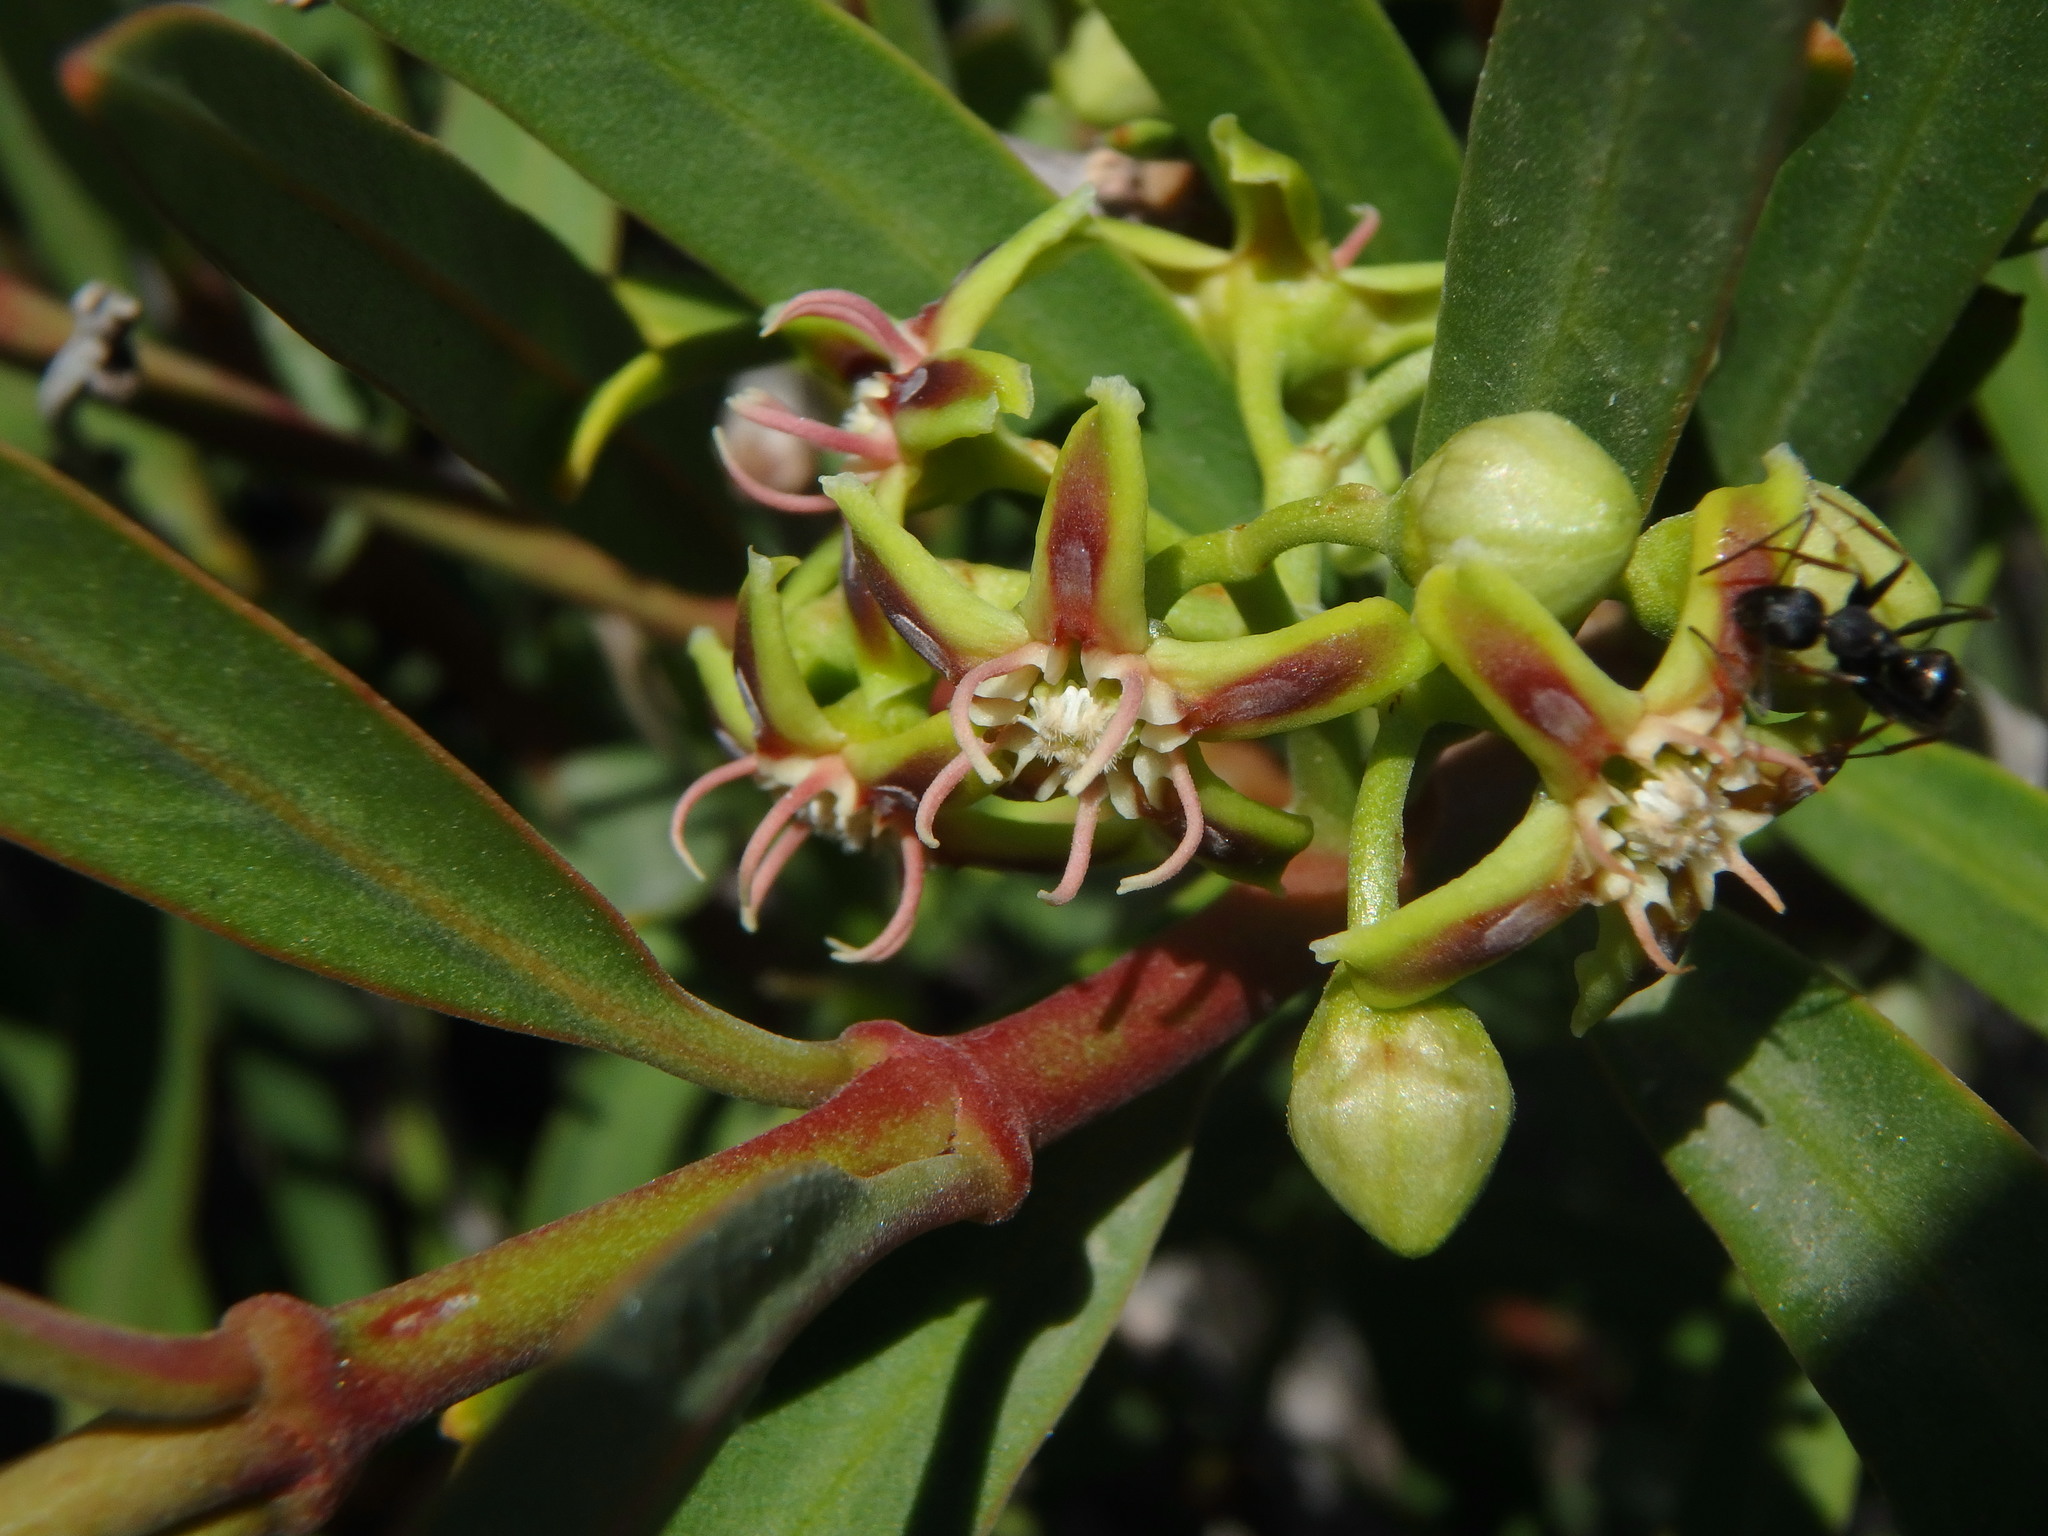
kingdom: Plantae
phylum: Tracheophyta
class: Magnoliopsida
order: Gentianales
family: Apocynaceae
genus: Periploca
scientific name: Periploca laevigata
